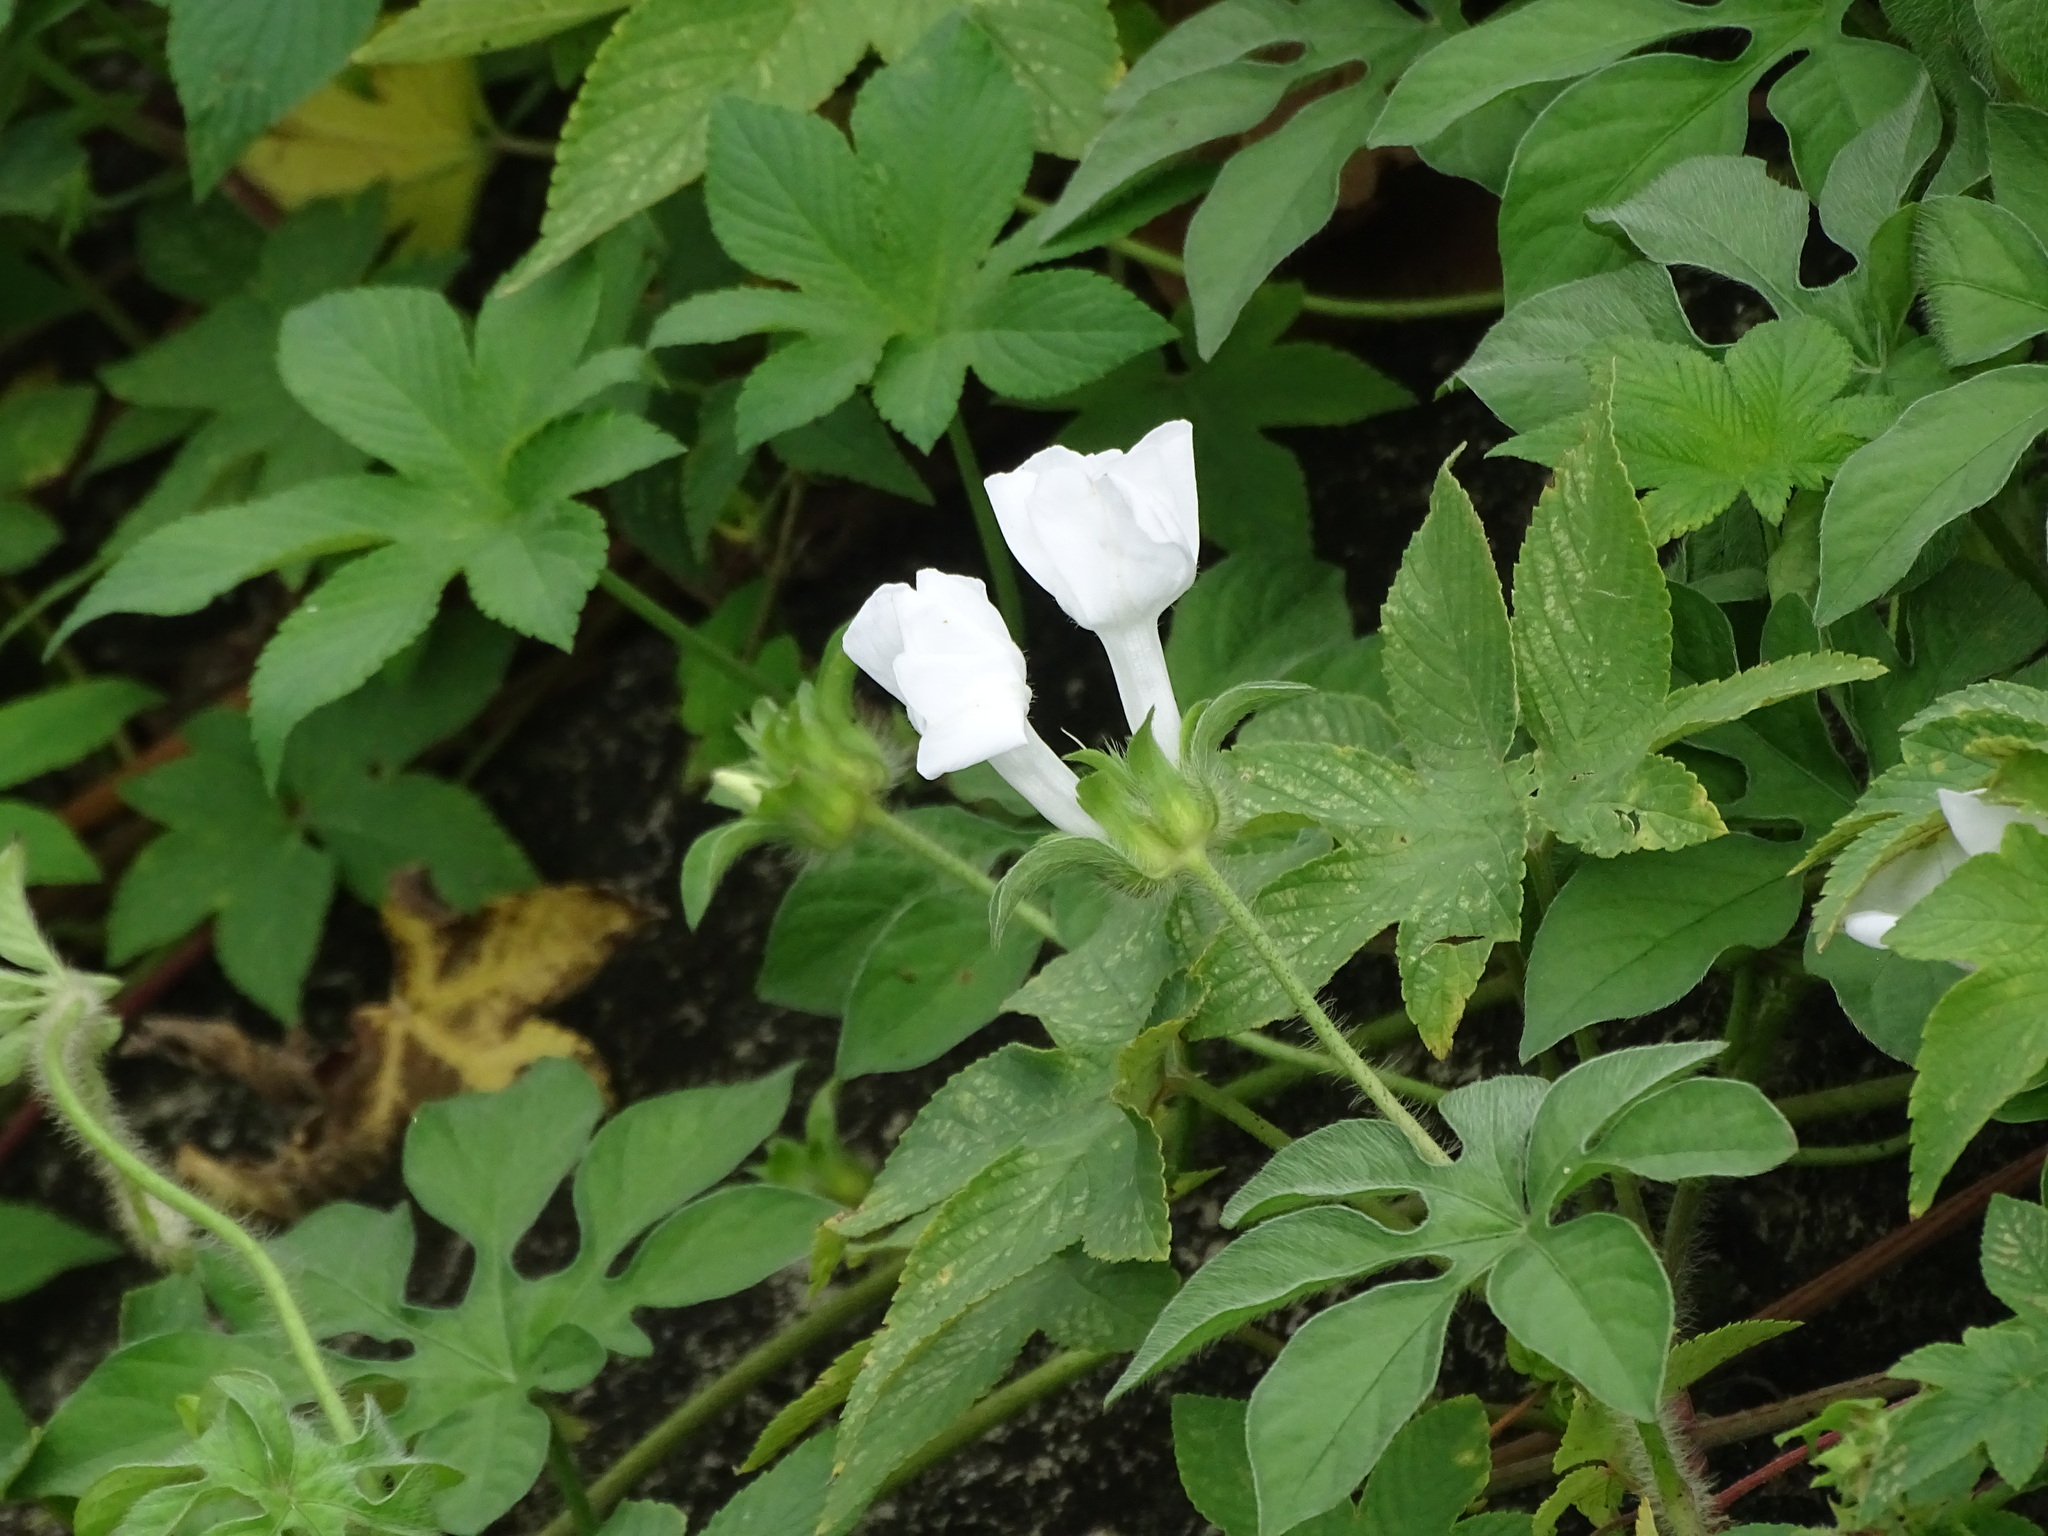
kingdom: Plantae
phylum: Tracheophyta
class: Magnoliopsida
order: Solanales
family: Convolvulaceae
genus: Ipomoea
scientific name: Ipomoea pes-tigridis
